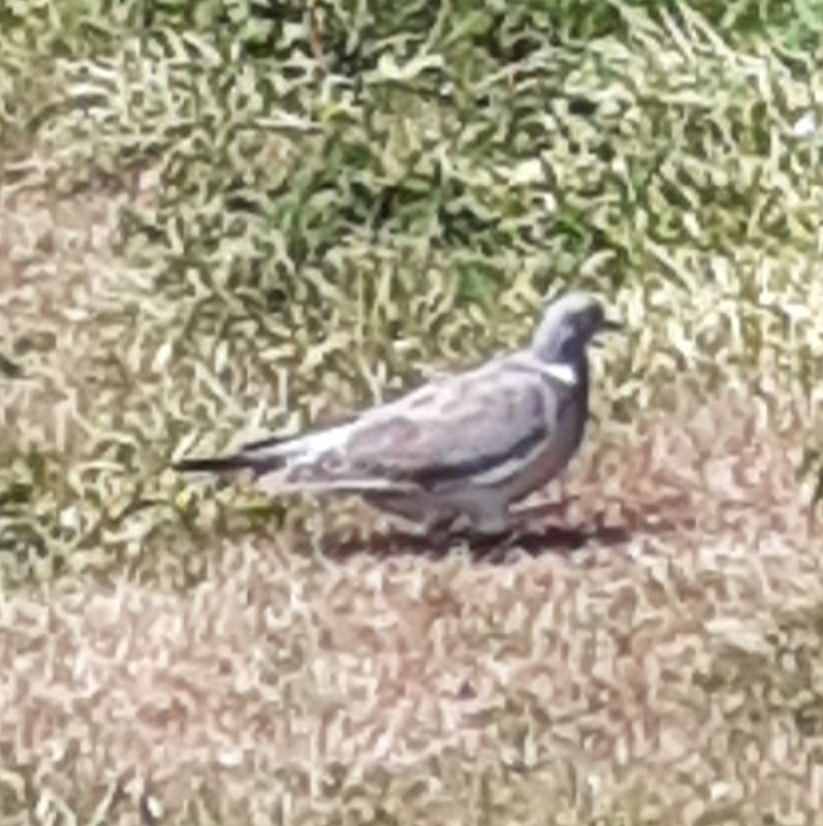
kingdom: Animalia
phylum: Chordata
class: Aves
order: Columbiformes
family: Columbidae
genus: Columba
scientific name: Columba palumbus
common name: Common wood pigeon
